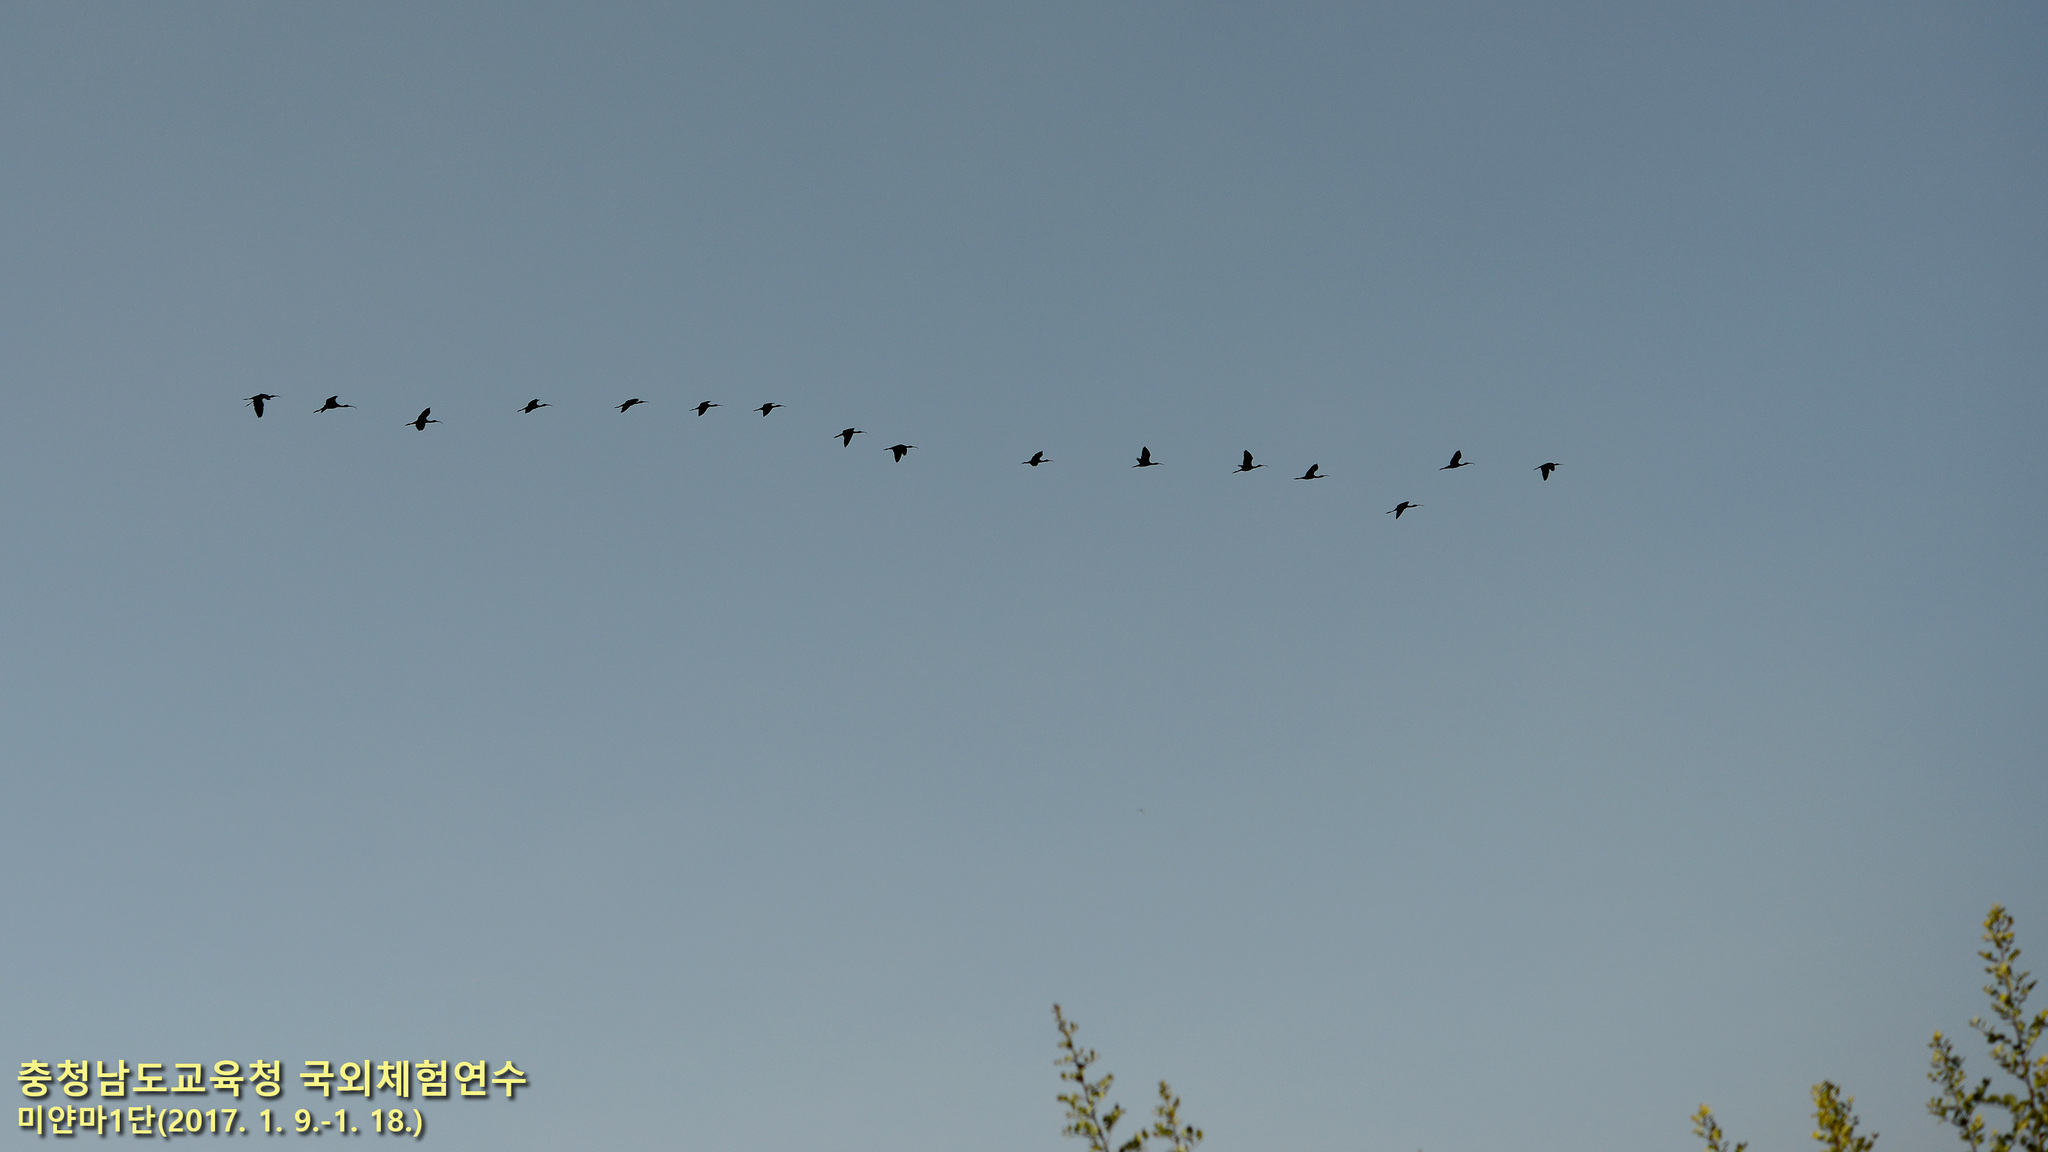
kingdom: Animalia
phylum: Chordata
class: Aves
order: Pelecaniformes
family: Threskiornithidae
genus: Plegadis
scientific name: Plegadis falcinellus
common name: Glossy ibis
